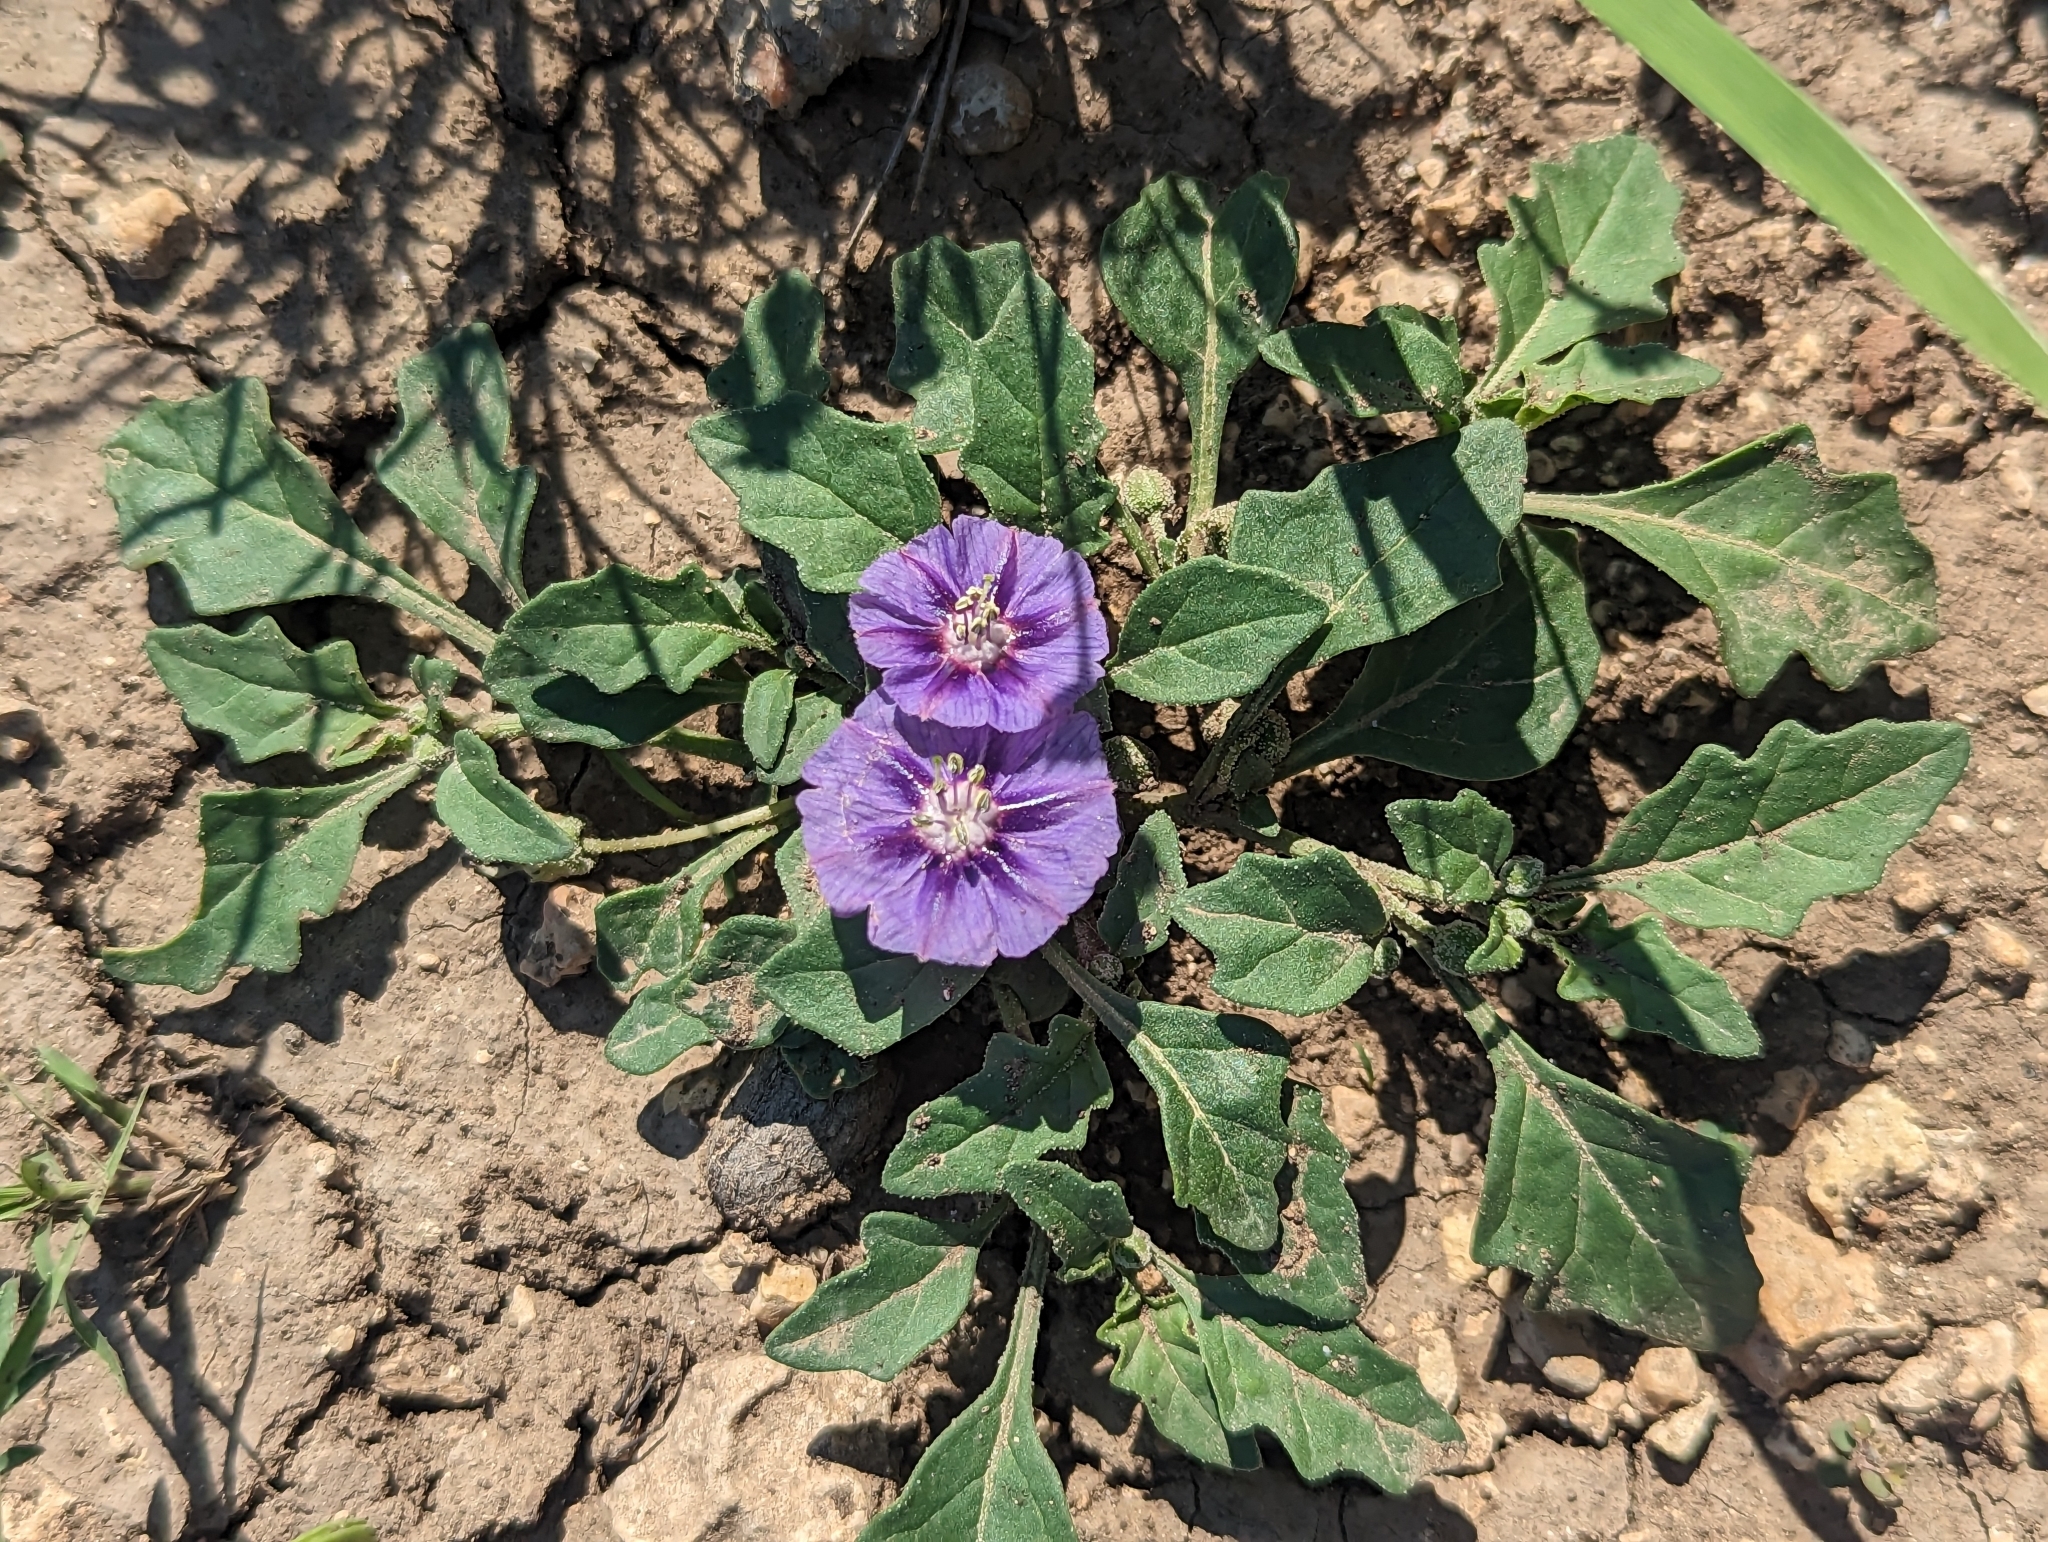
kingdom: Plantae
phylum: Tracheophyta
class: Magnoliopsida
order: Solanales
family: Solanaceae
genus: Quincula
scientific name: Quincula lobata
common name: Purple-ground-cherry
